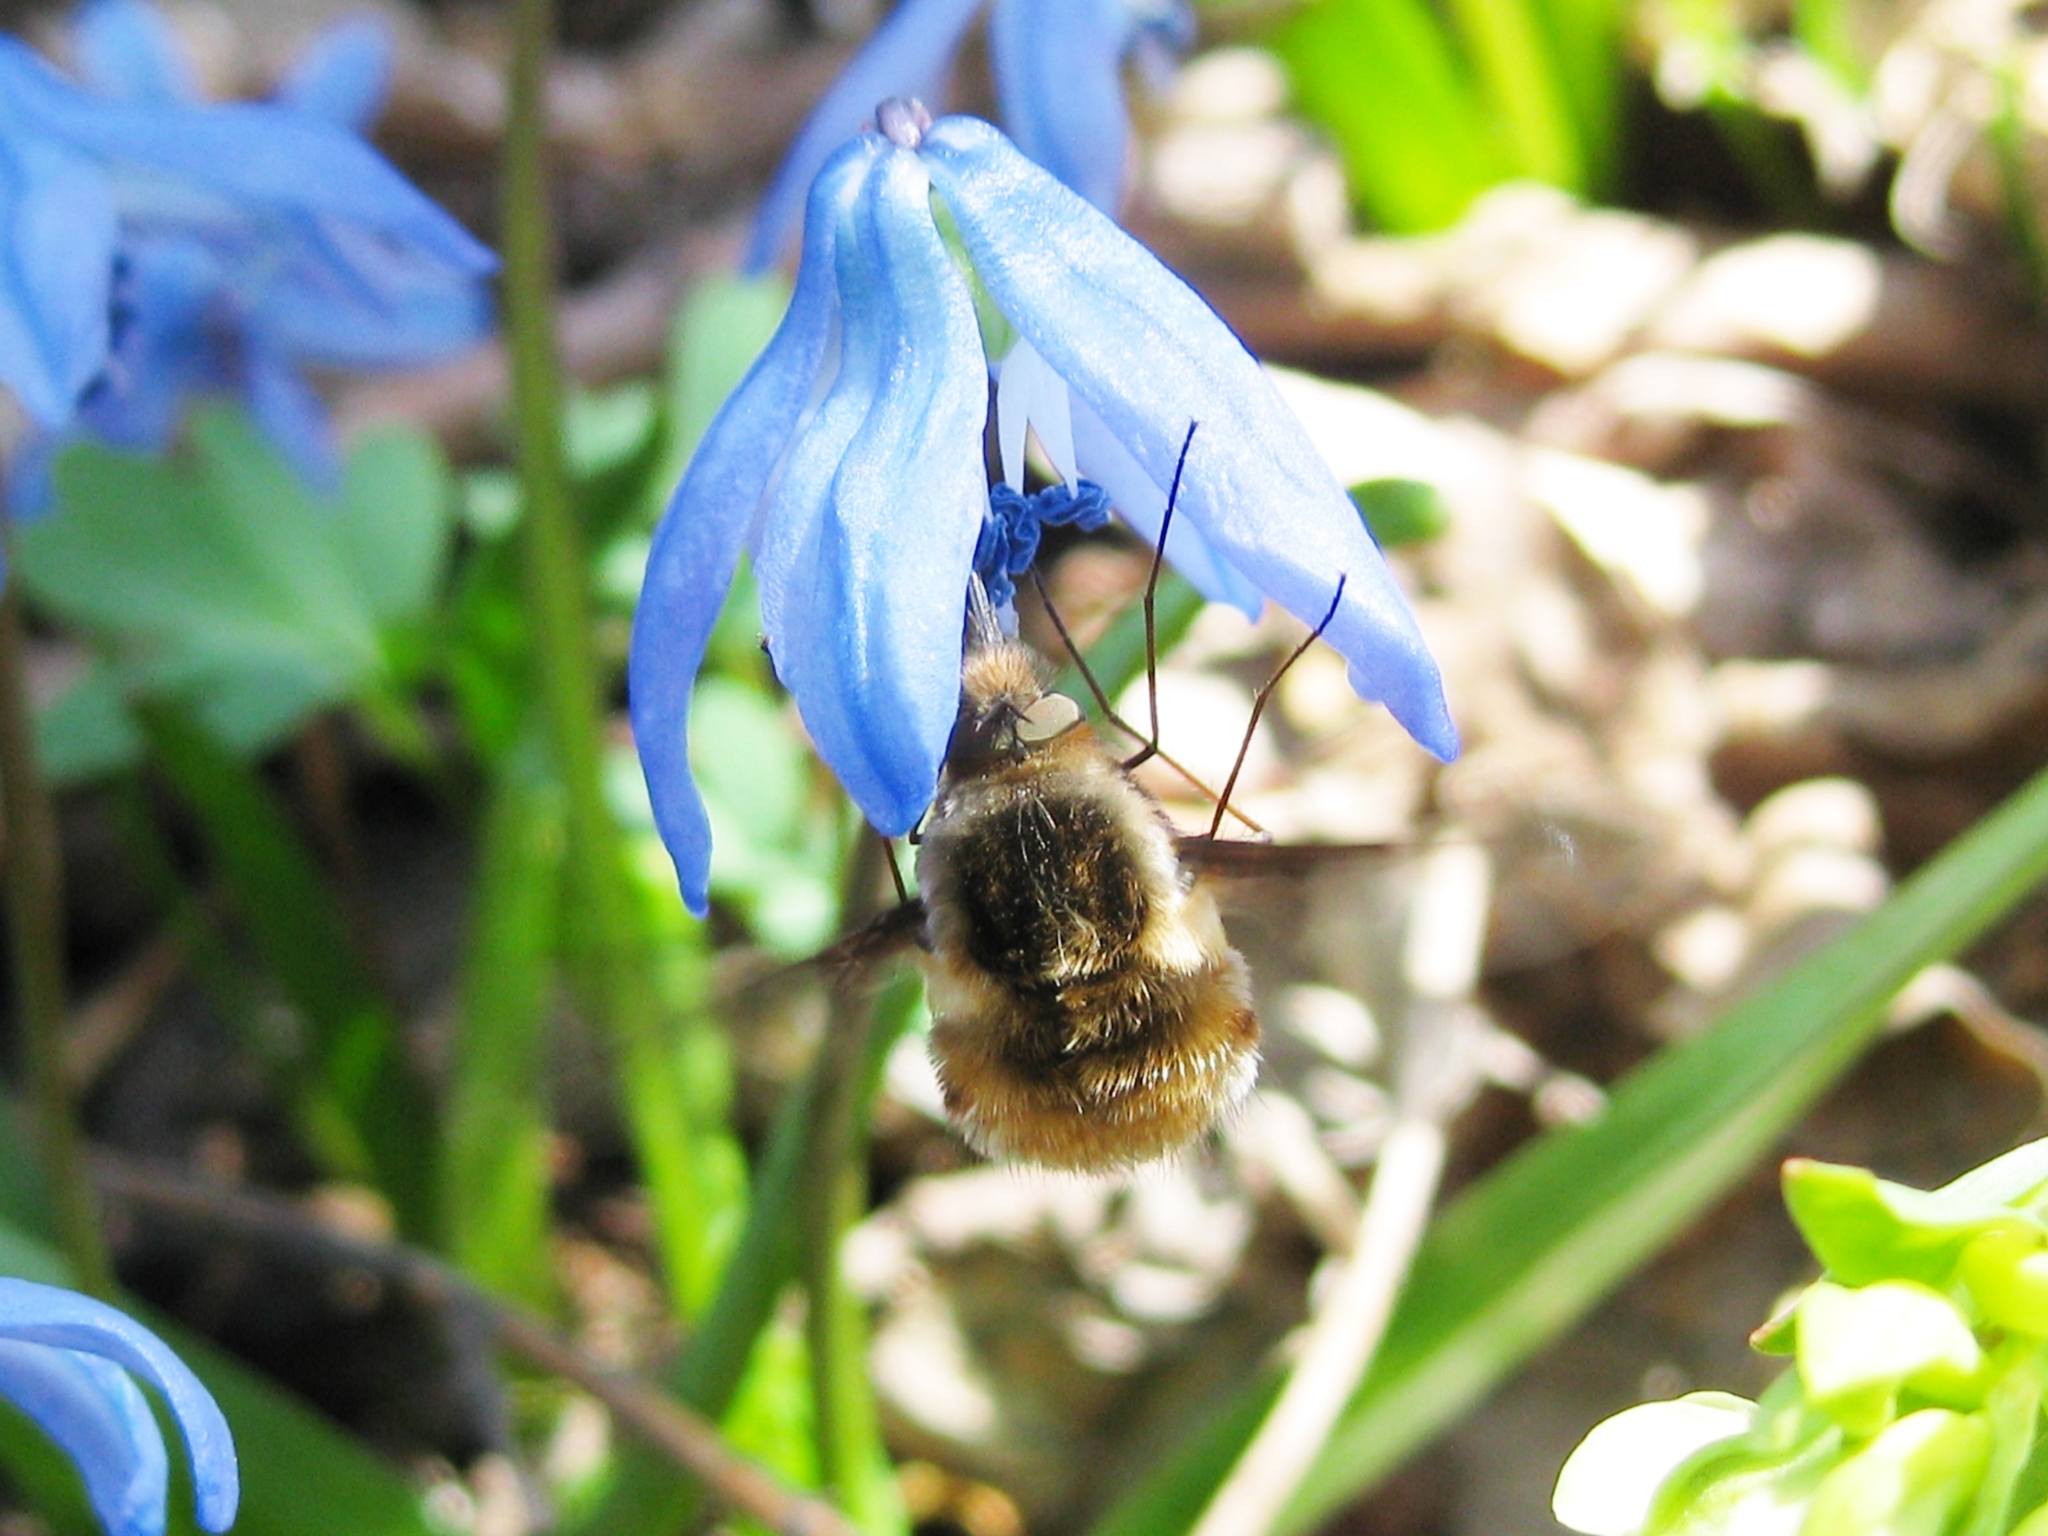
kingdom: Animalia
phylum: Arthropoda
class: Insecta
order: Diptera
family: Bombyliidae
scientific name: Bombyliidae
